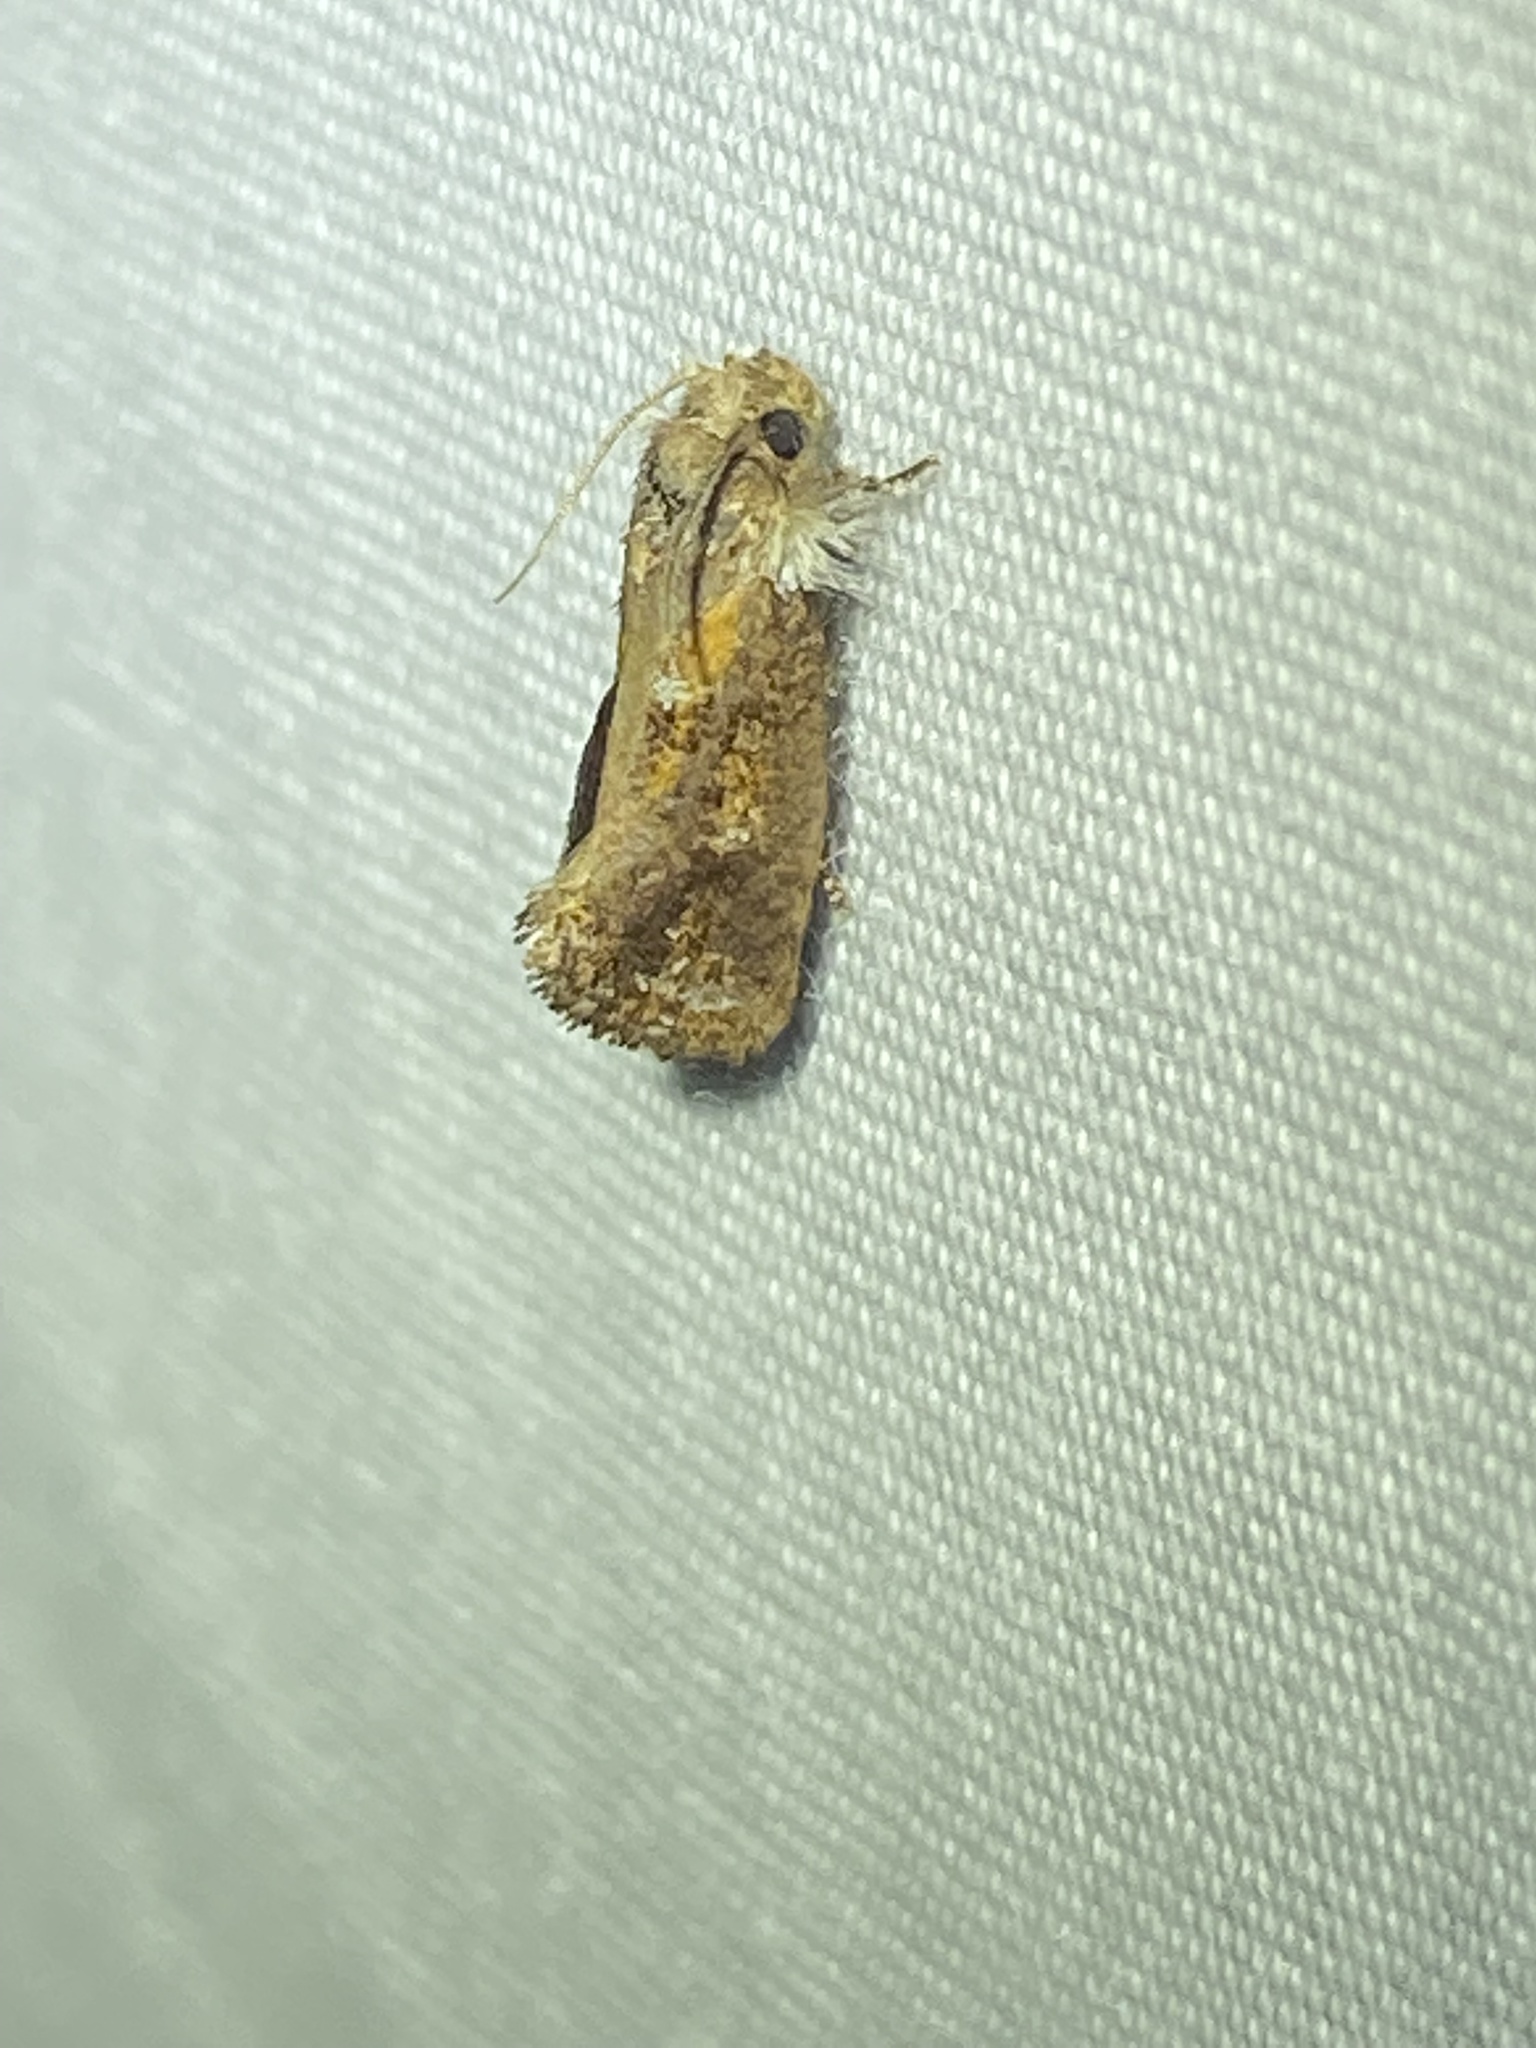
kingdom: Animalia
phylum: Arthropoda
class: Insecta
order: Lepidoptera
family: Tineidae
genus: Acrolophus
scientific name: Acrolophus panamae
